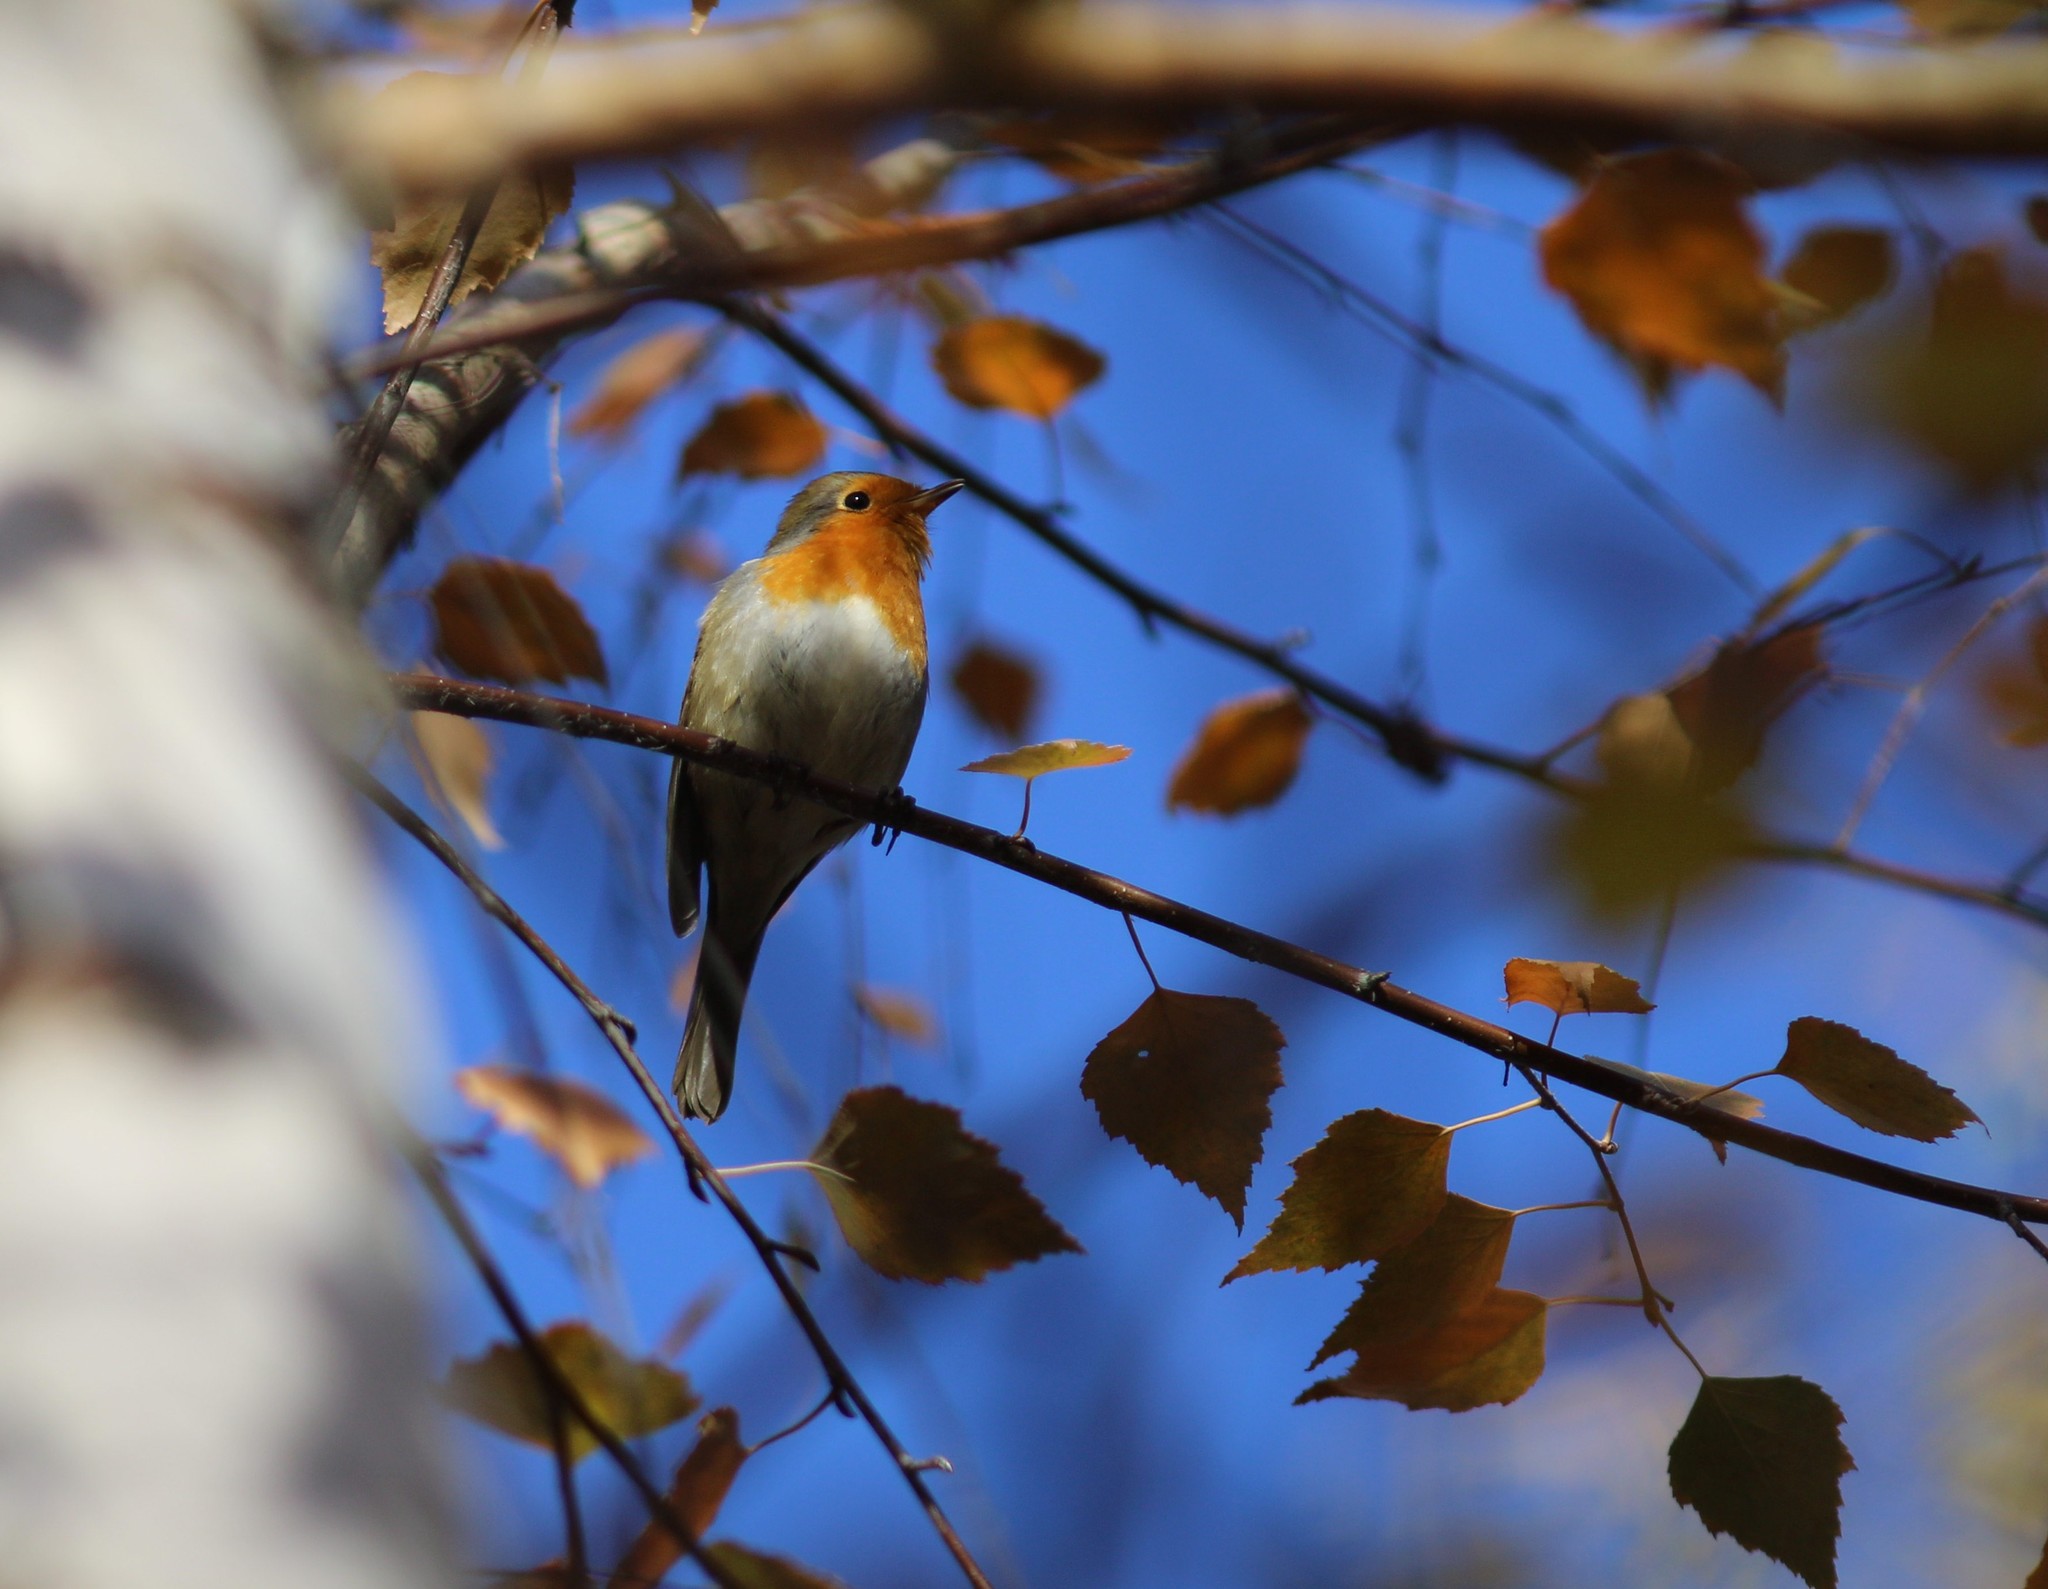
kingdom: Animalia
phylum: Chordata
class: Aves
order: Passeriformes
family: Muscicapidae
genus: Erithacus
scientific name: Erithacus rubecula
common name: European robin
